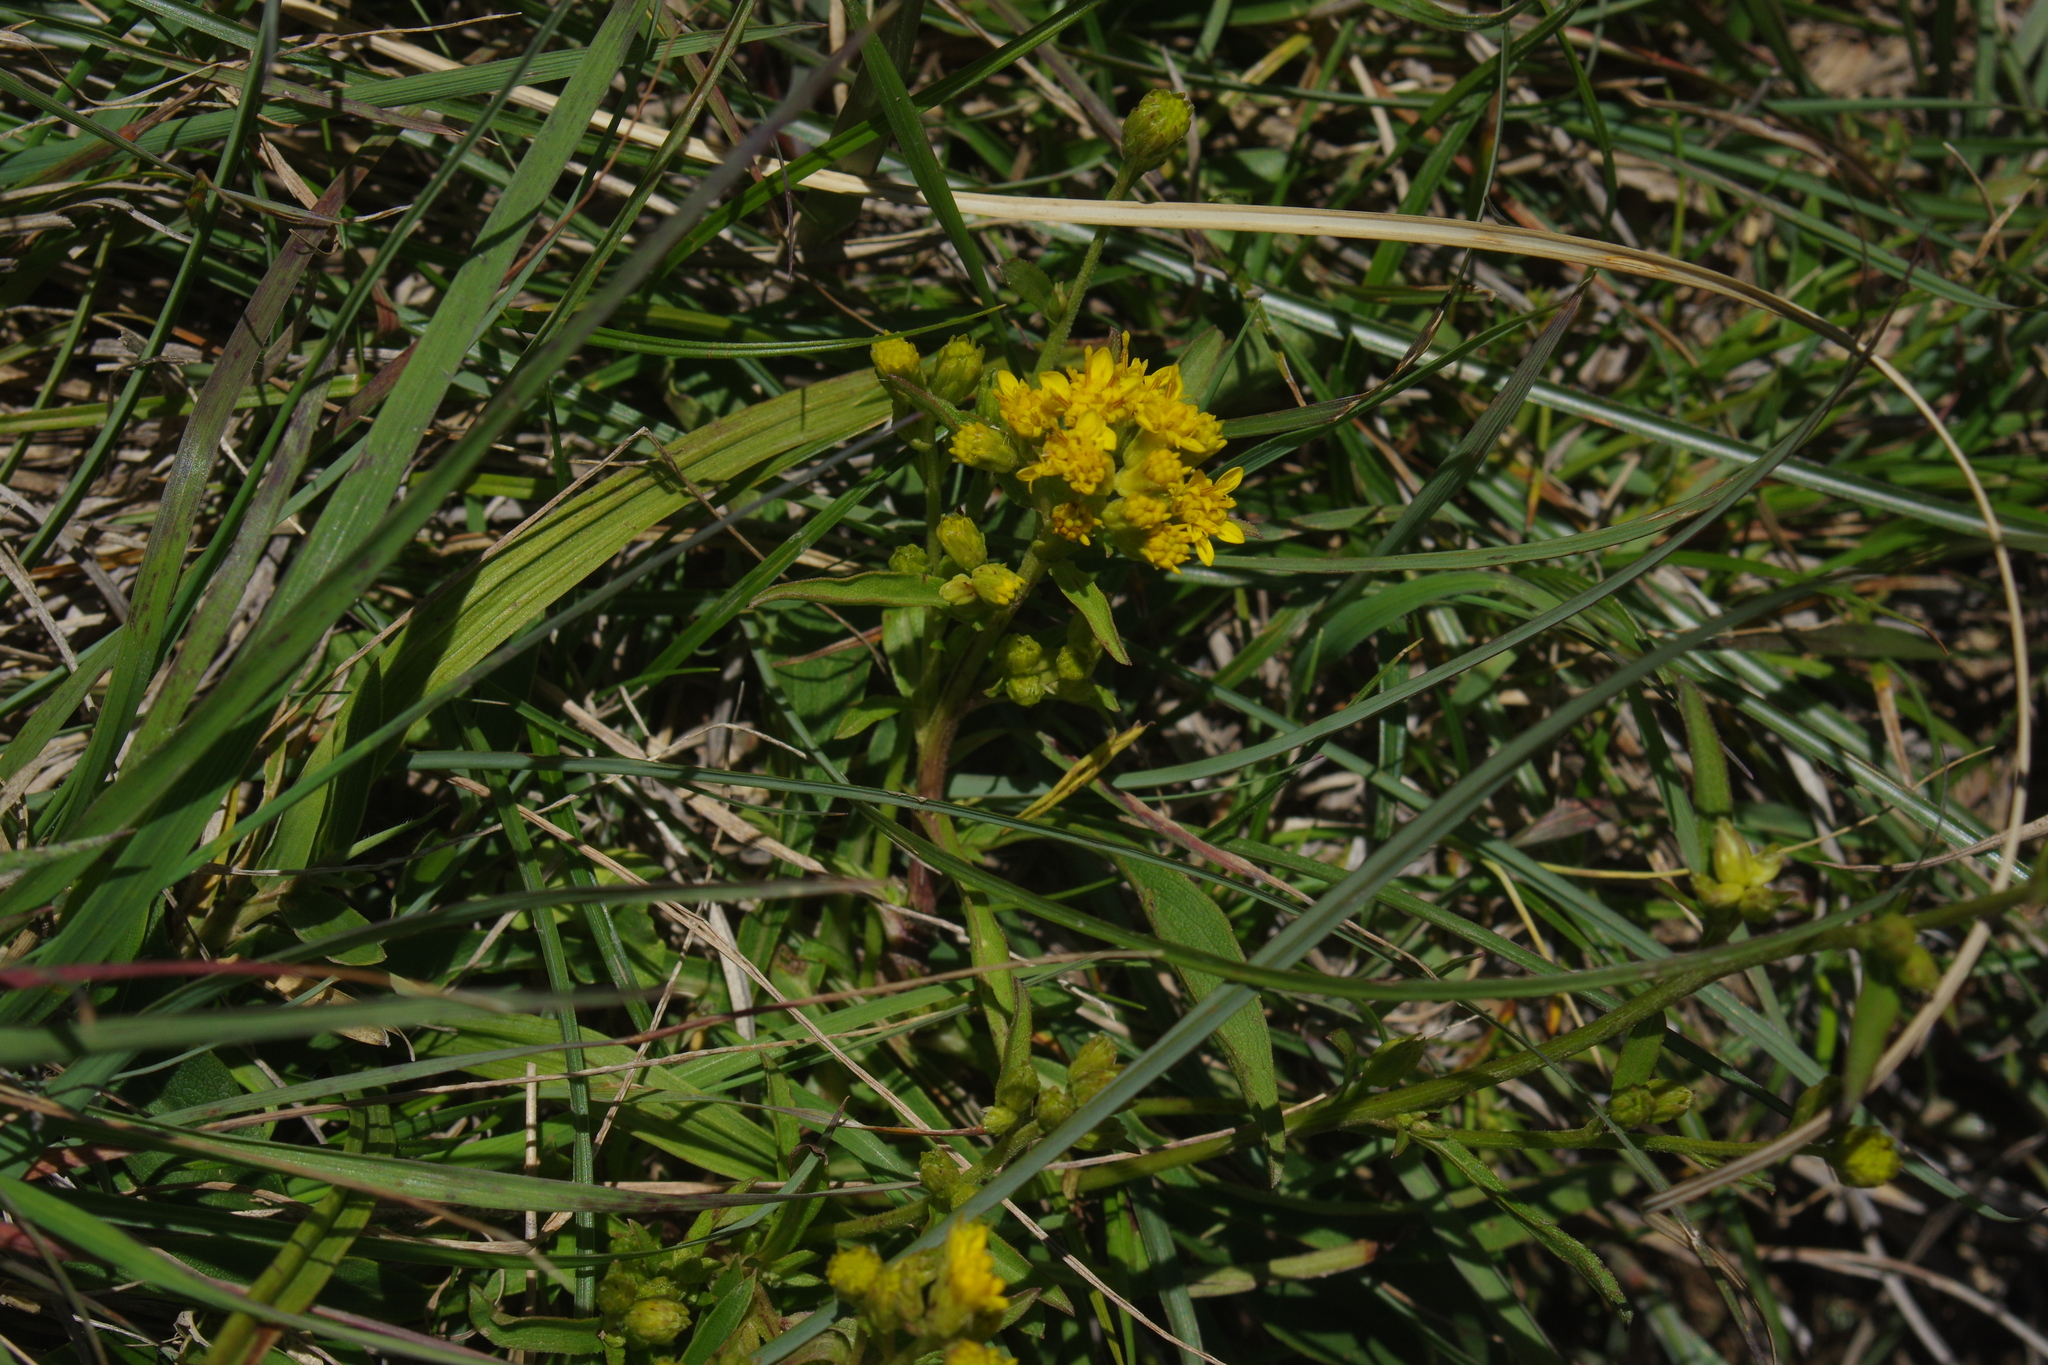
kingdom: Plantae
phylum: Tracheophyta
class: Magnoliopsida
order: Asterales
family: Asteraceae
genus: Solidago
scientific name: Solidago decurrens
